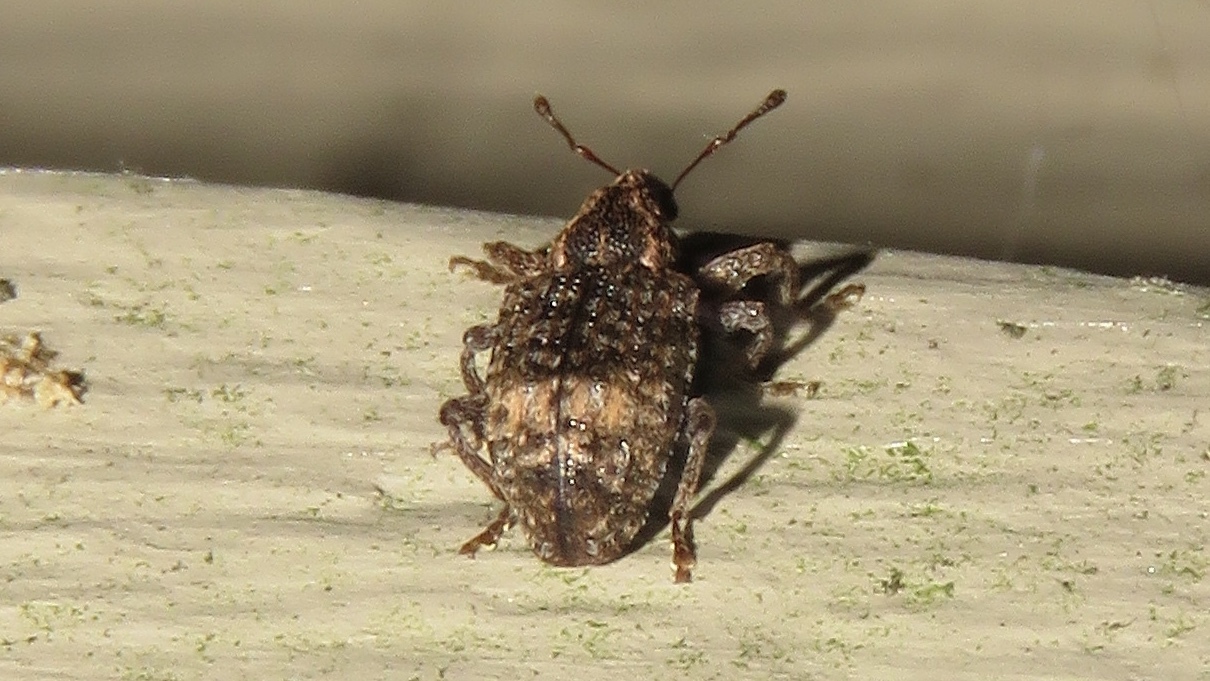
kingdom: Animalia
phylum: Arthropoda
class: Insecta
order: Coleoptera
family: Curculionidae
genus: Conotrachelus
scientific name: Conotrachelus aratus
